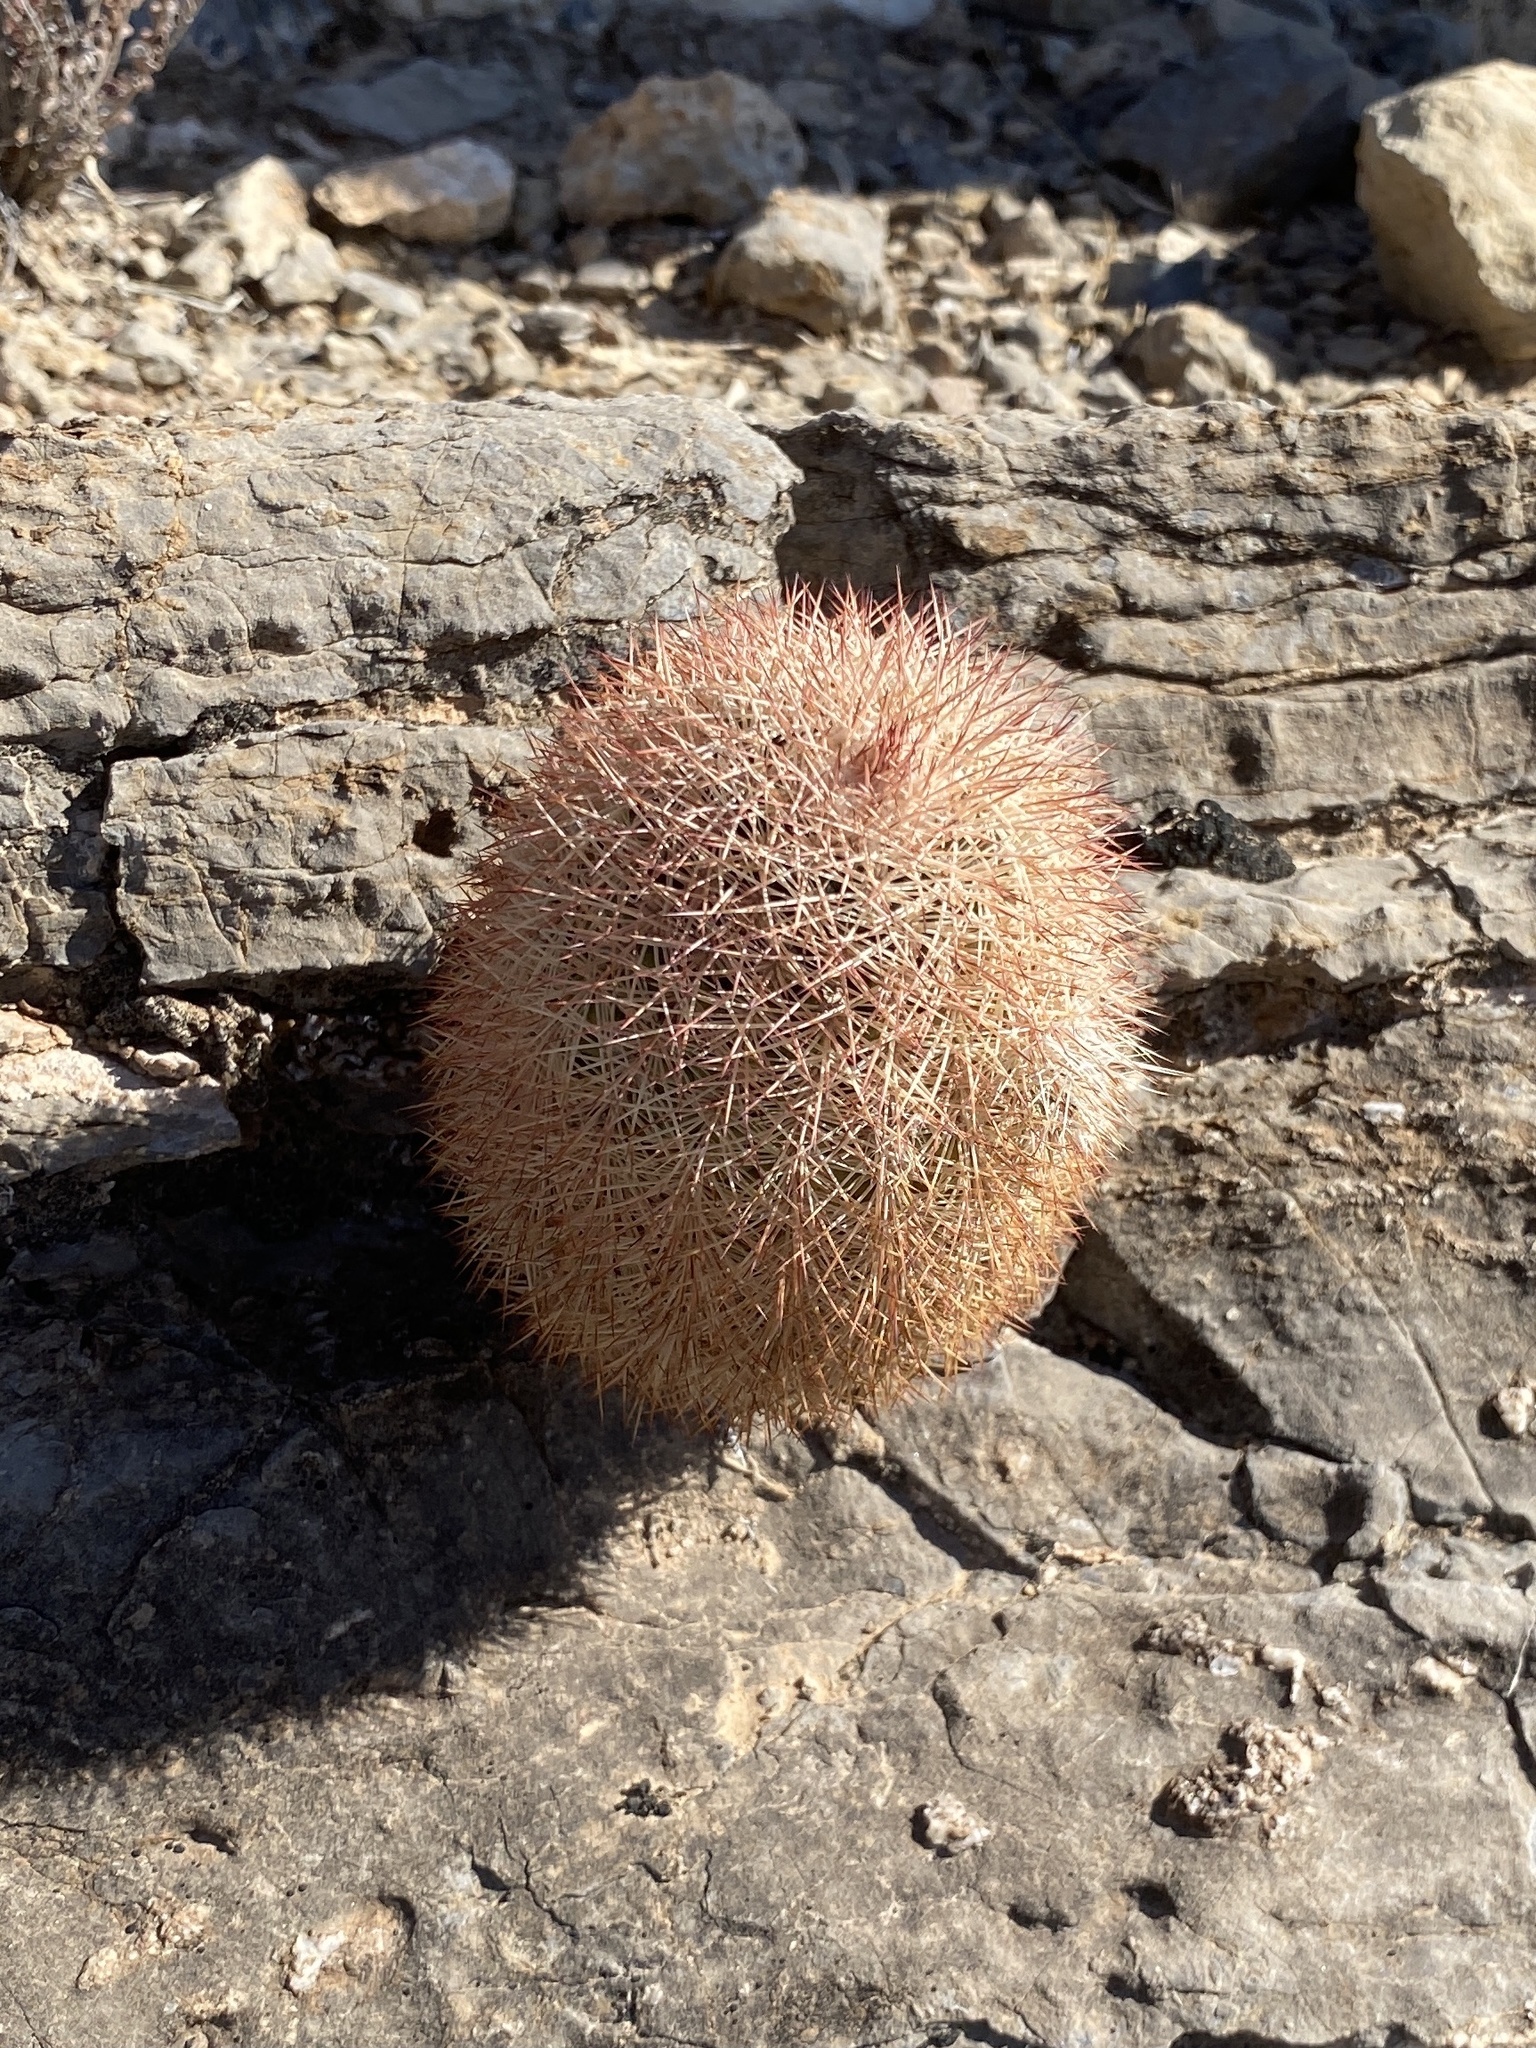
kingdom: Plantae
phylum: Tracheophyta
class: Magnoliopsida
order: Caryophyllales
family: Cactaceae
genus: Echinocereus
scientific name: Echinocereus dasyacanthus
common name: Spiny hedgehog cactus
